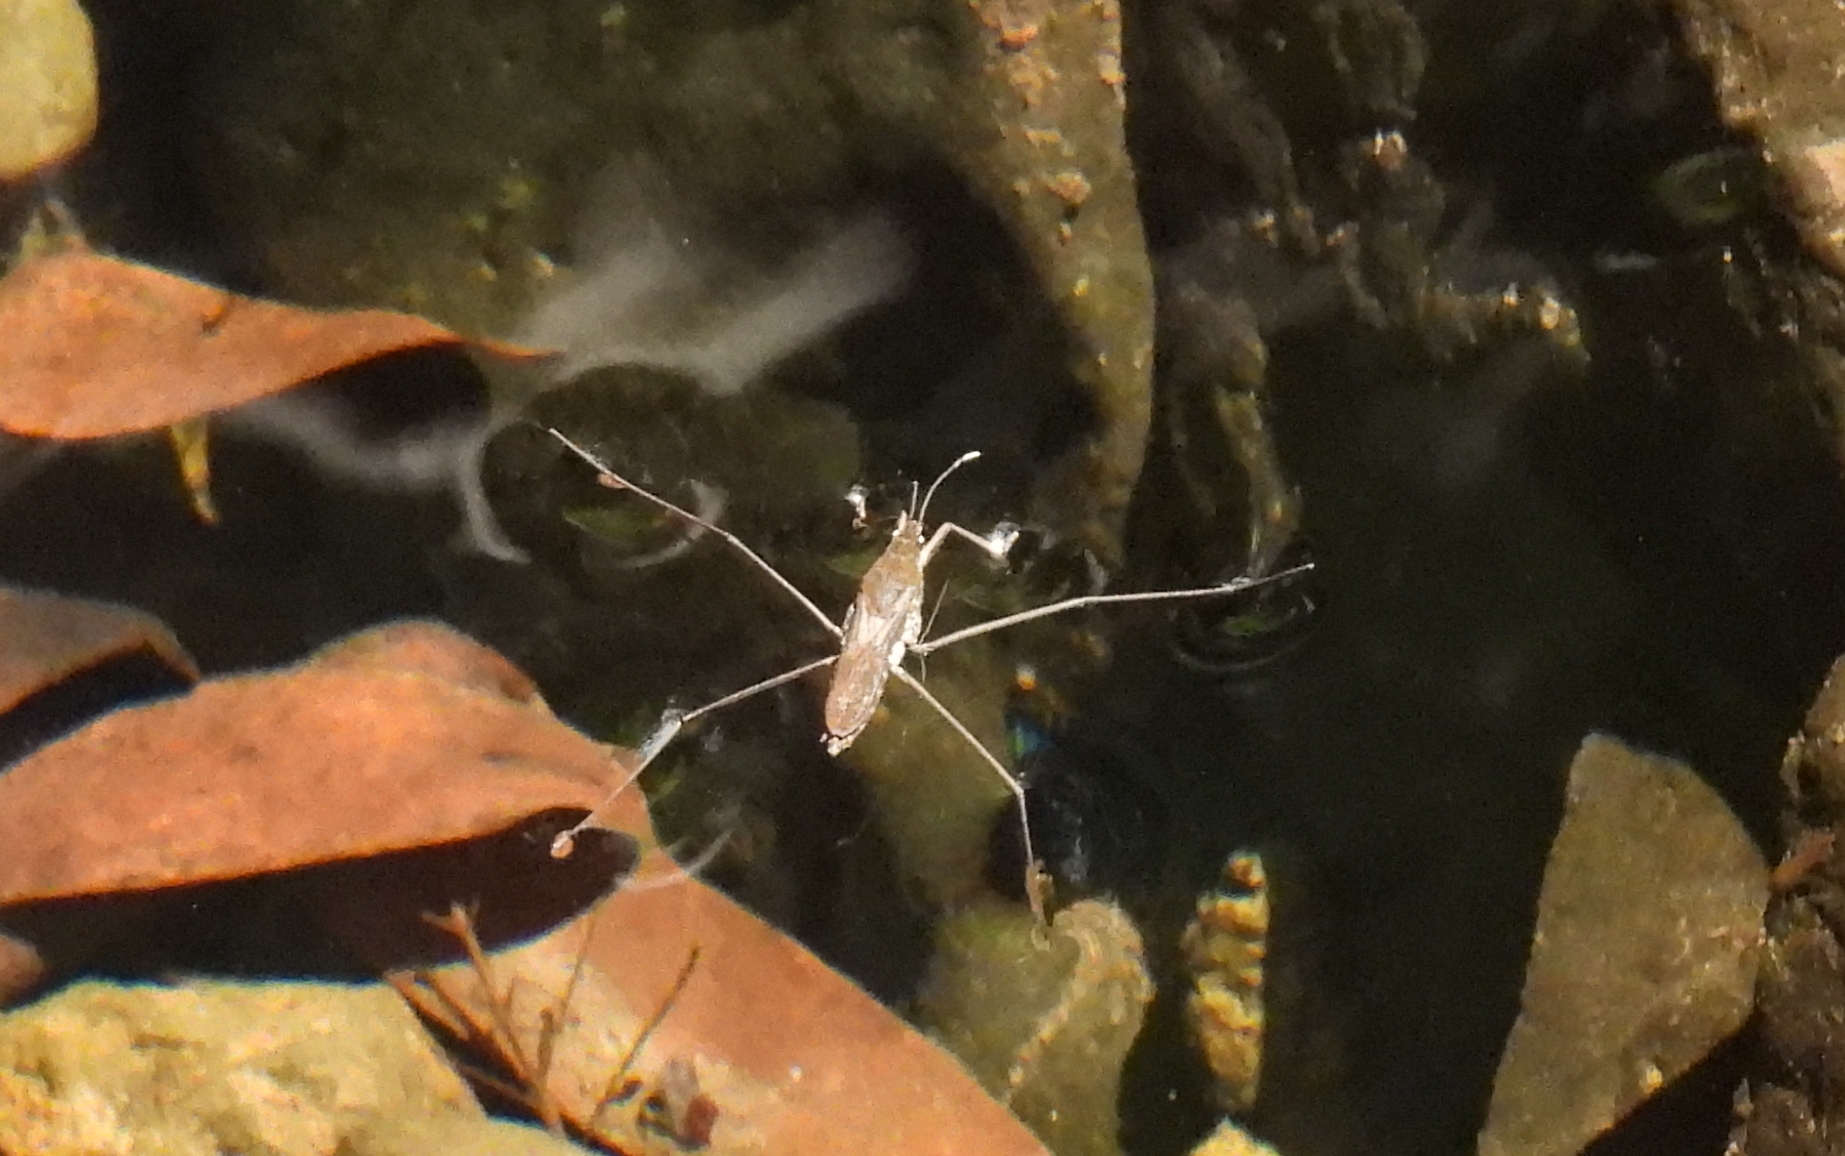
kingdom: Animalia
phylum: Arthropoda
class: Insecta
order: Hemiptera
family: Gerridae
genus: Aquarius
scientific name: Aquarius remigis
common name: Common water strider
